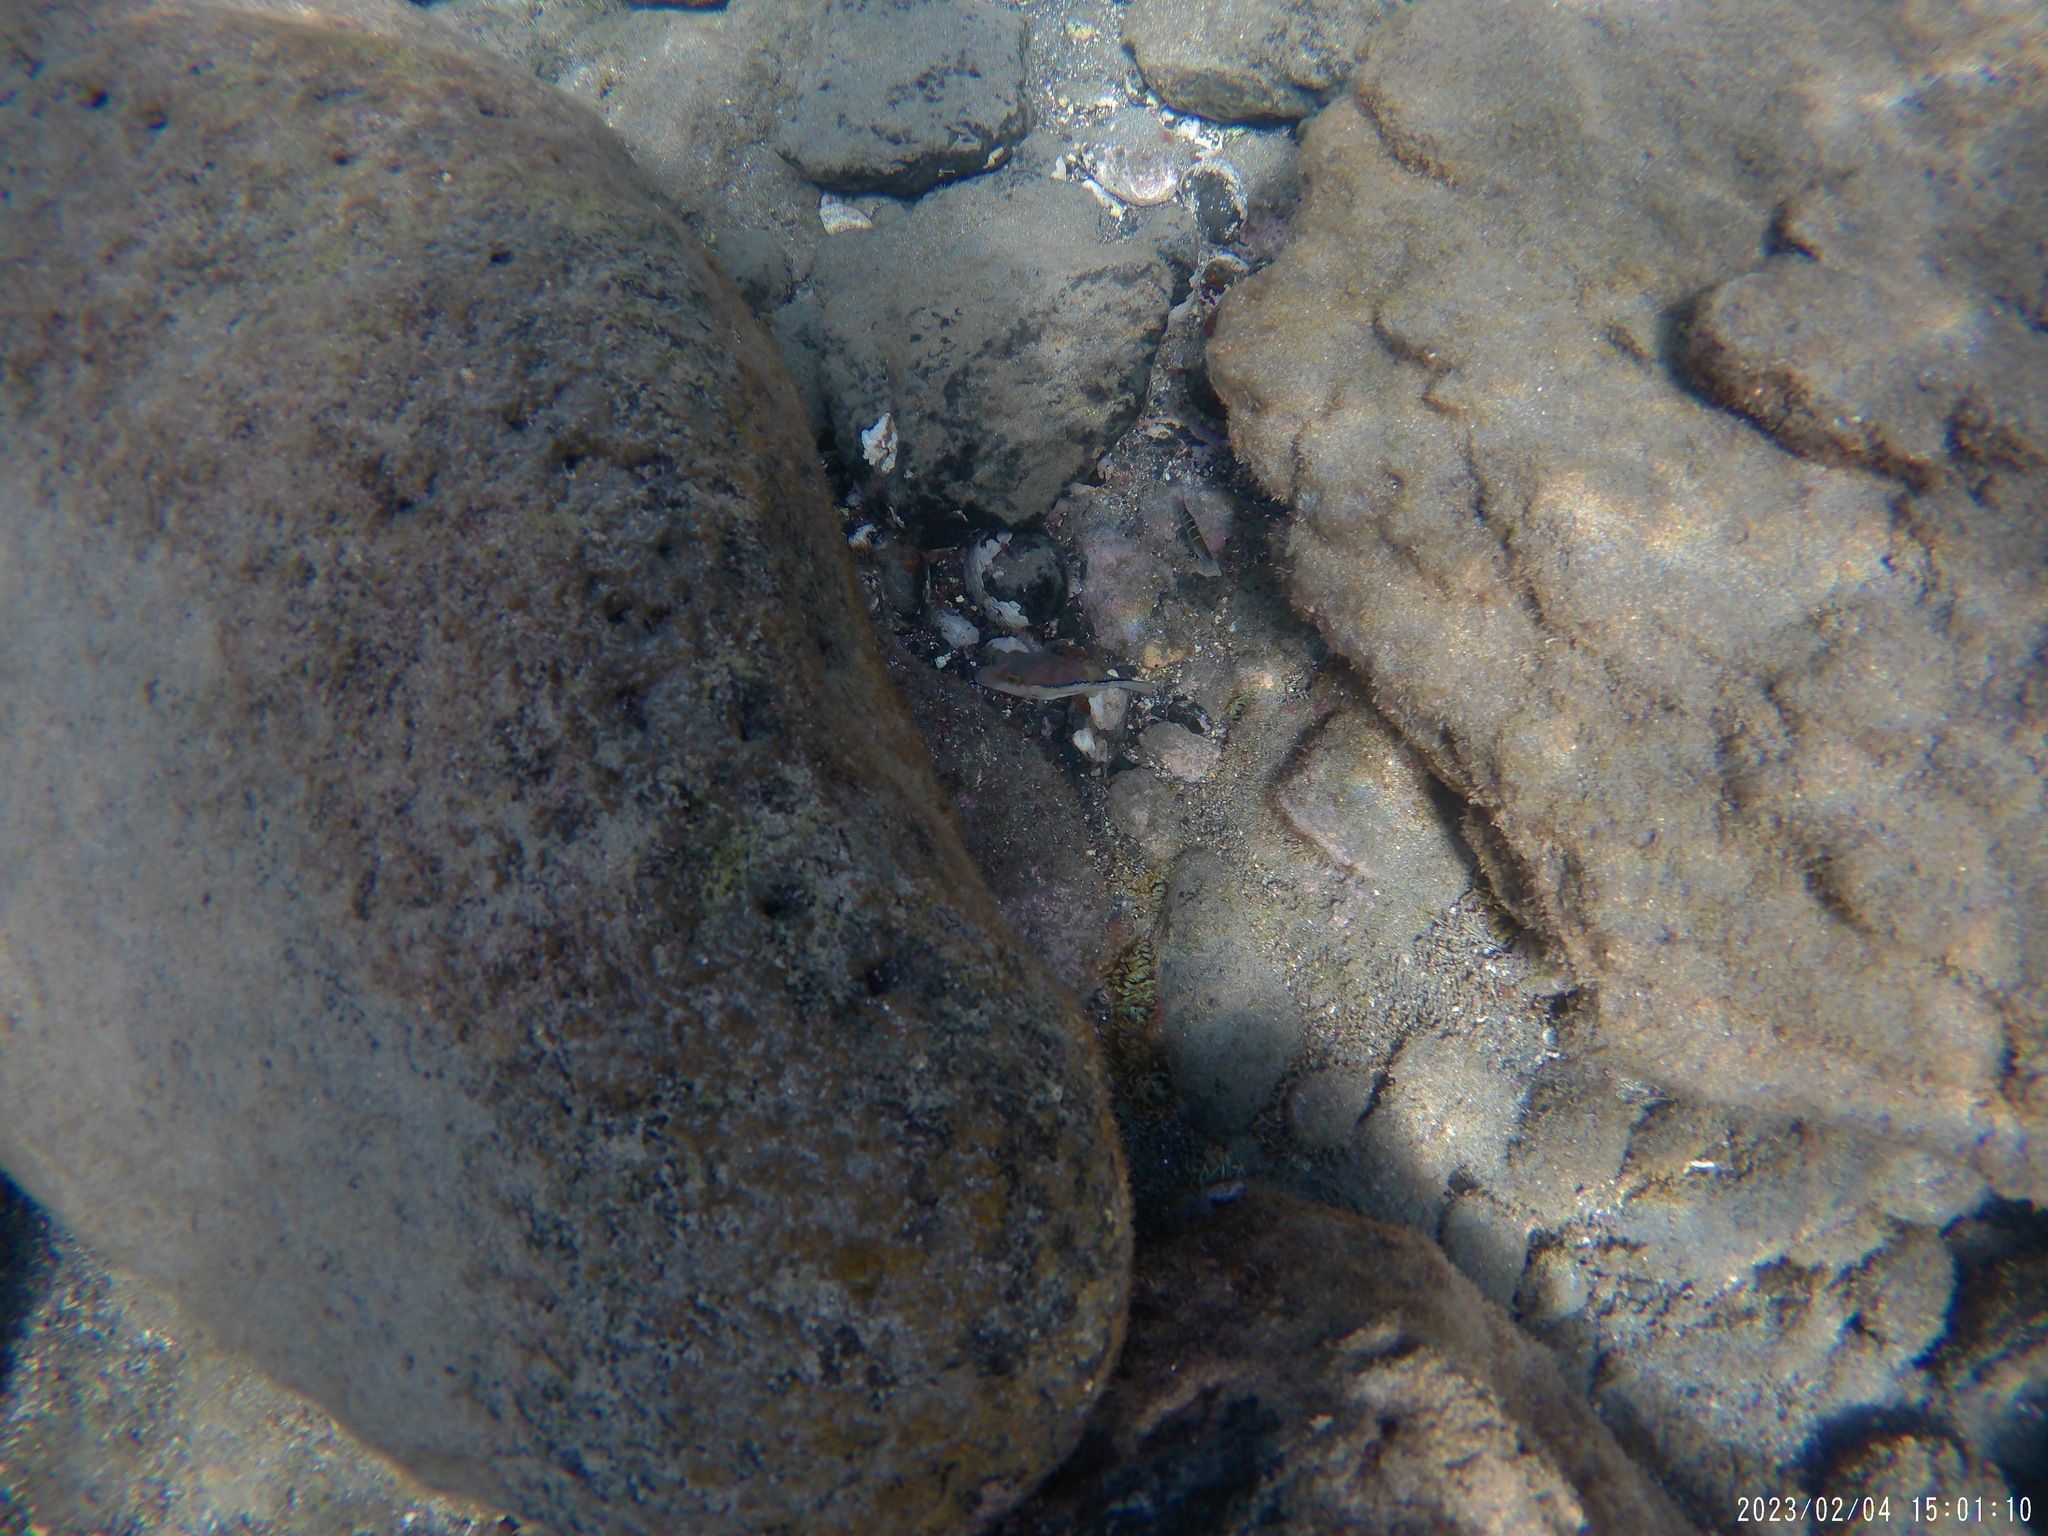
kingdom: Animalia
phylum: Chordata
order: Tetraodontiformes
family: Tetraodontidae
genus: Canthigaster
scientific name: Canthigaster capistrata
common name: Macaronesian sharpnose-puffer
